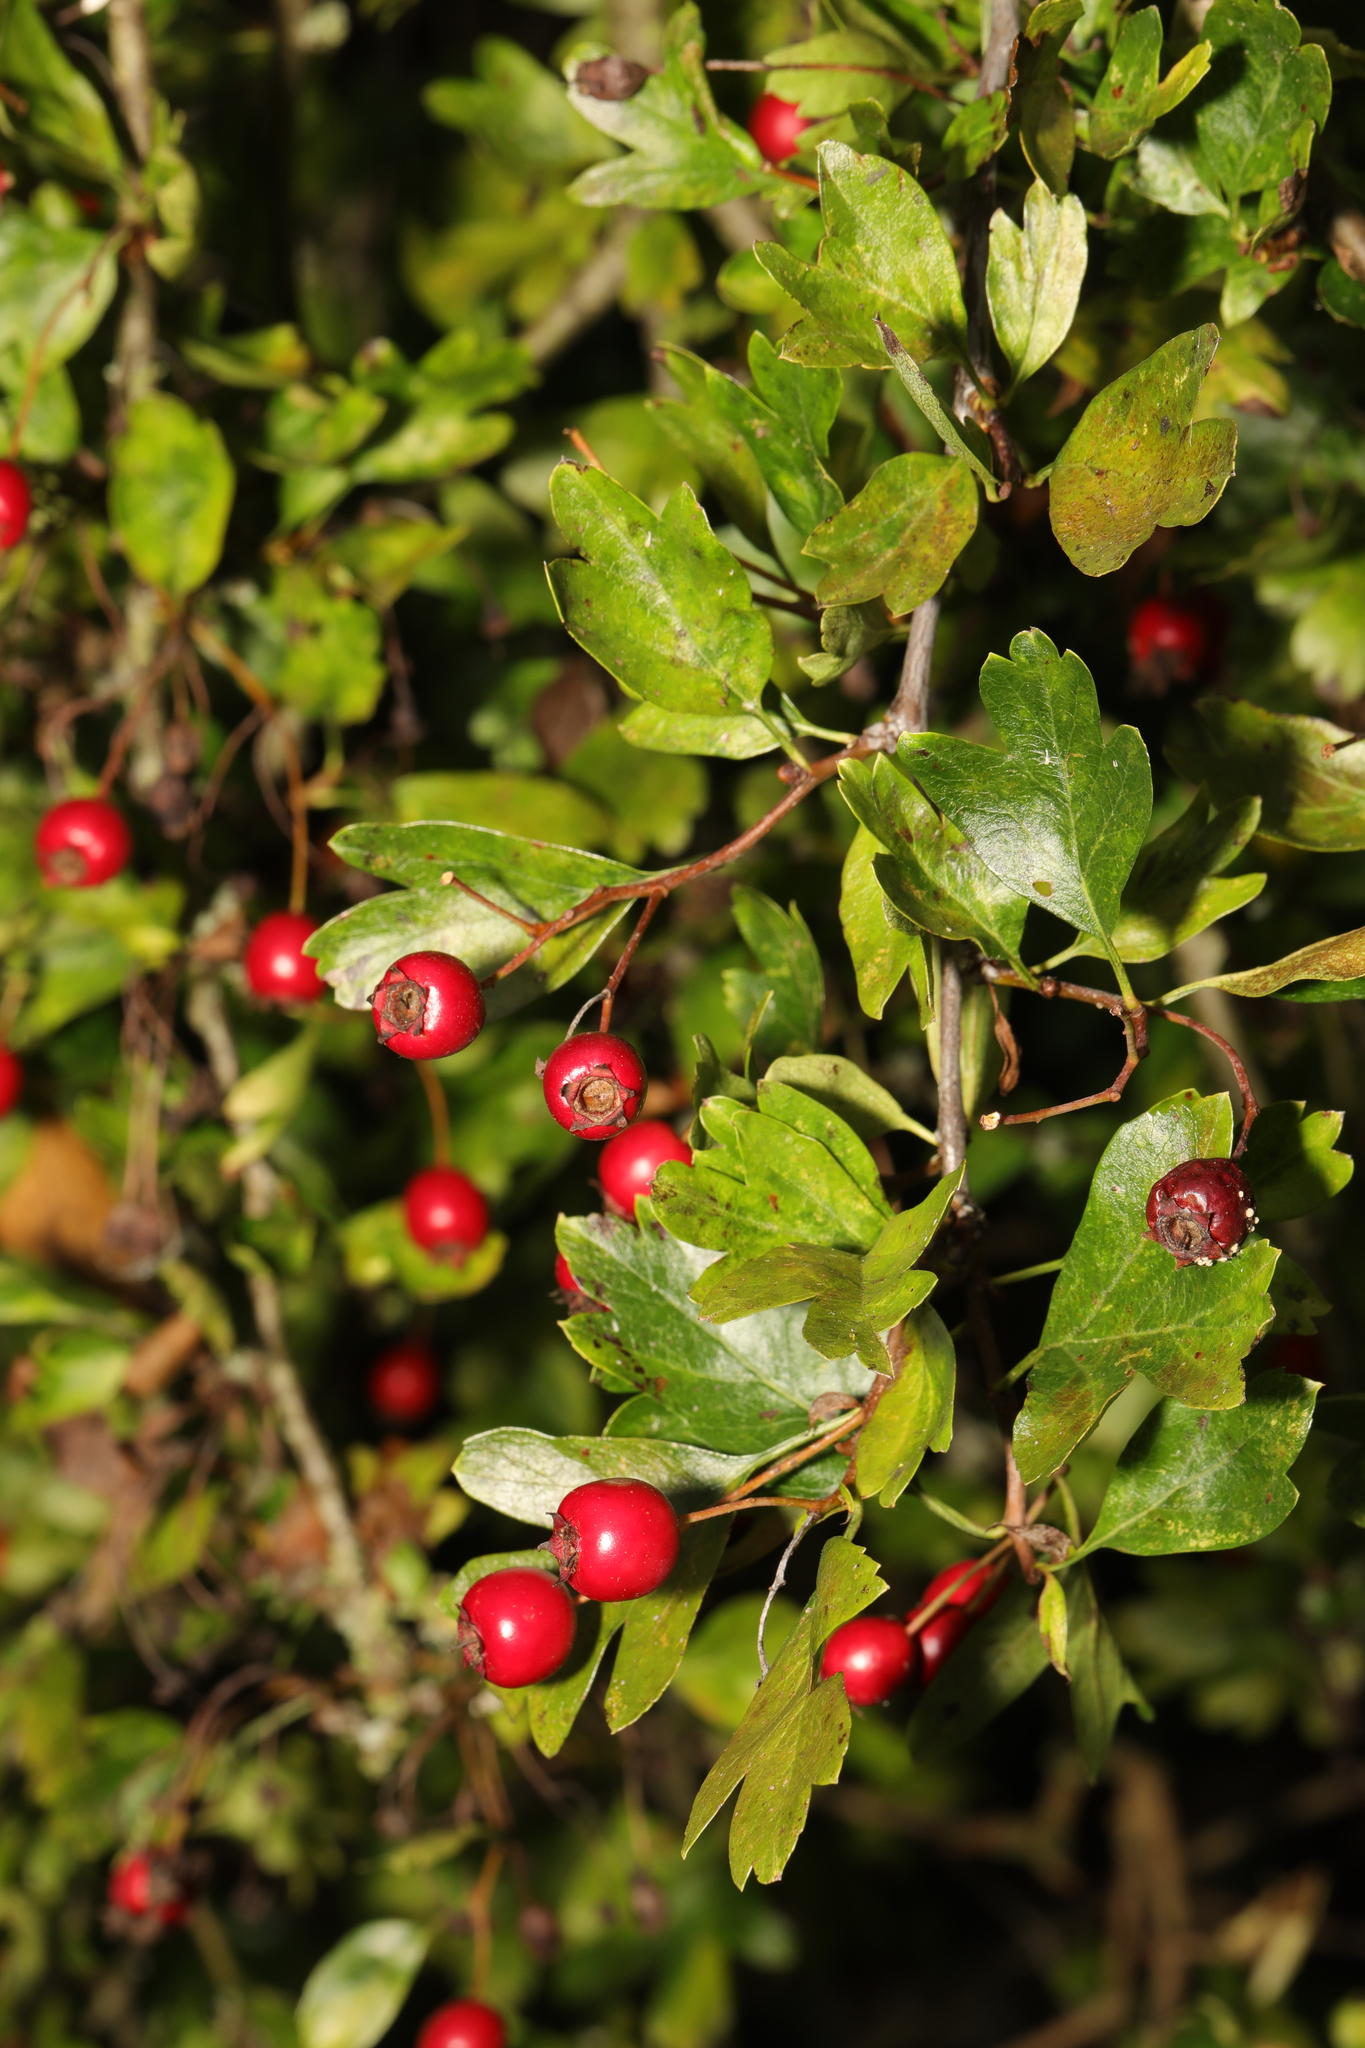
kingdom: Plantae
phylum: Tracheophyta
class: Magnoliopsida
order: Rosales
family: Rosaceae
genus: Crataegus
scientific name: Crataegus monogyna
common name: Hawthorn
